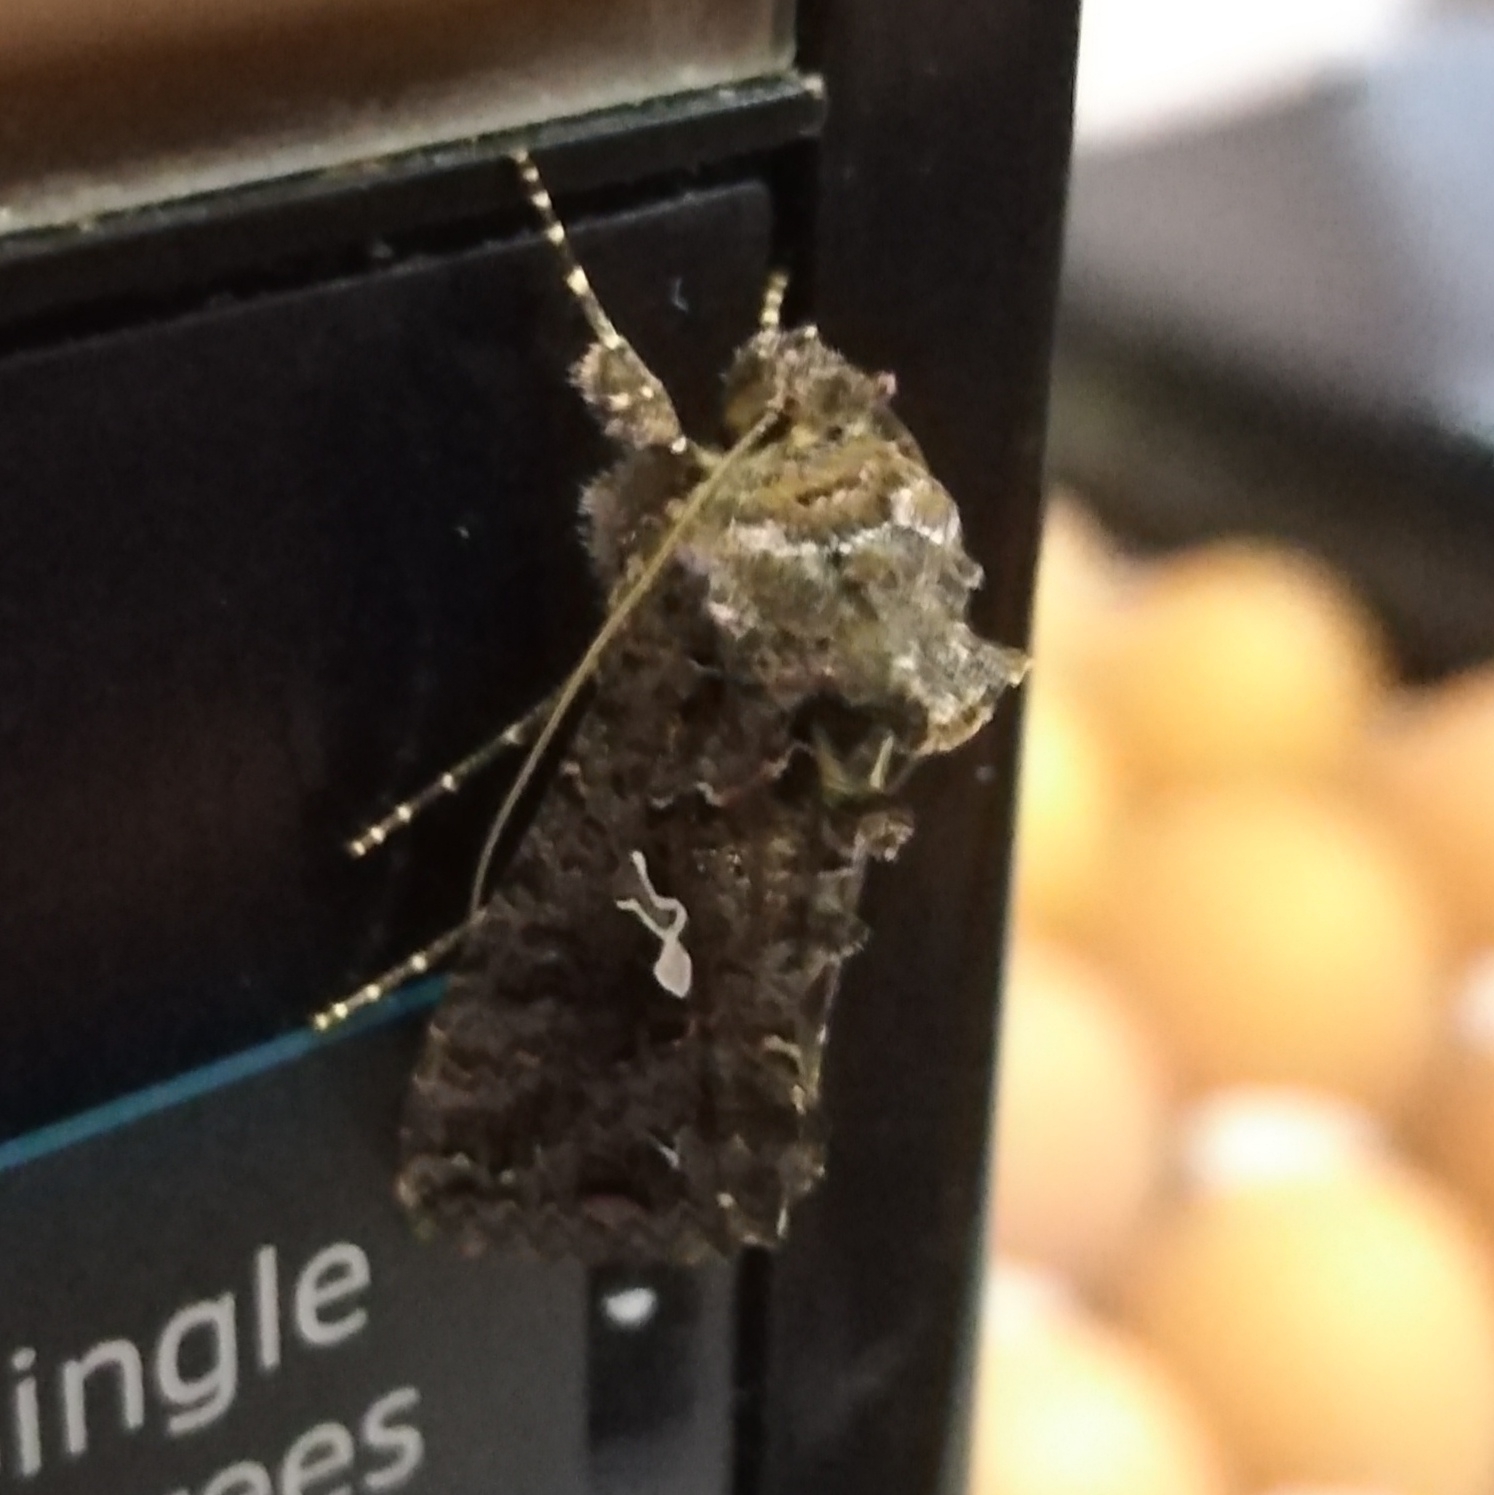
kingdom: Animalia
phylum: Arthropoda
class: Insecta
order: Lepidoptera
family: Noctuidae
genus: Ctenoplusia
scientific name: Ctenoplusia limbirena
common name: Scar bank gem
